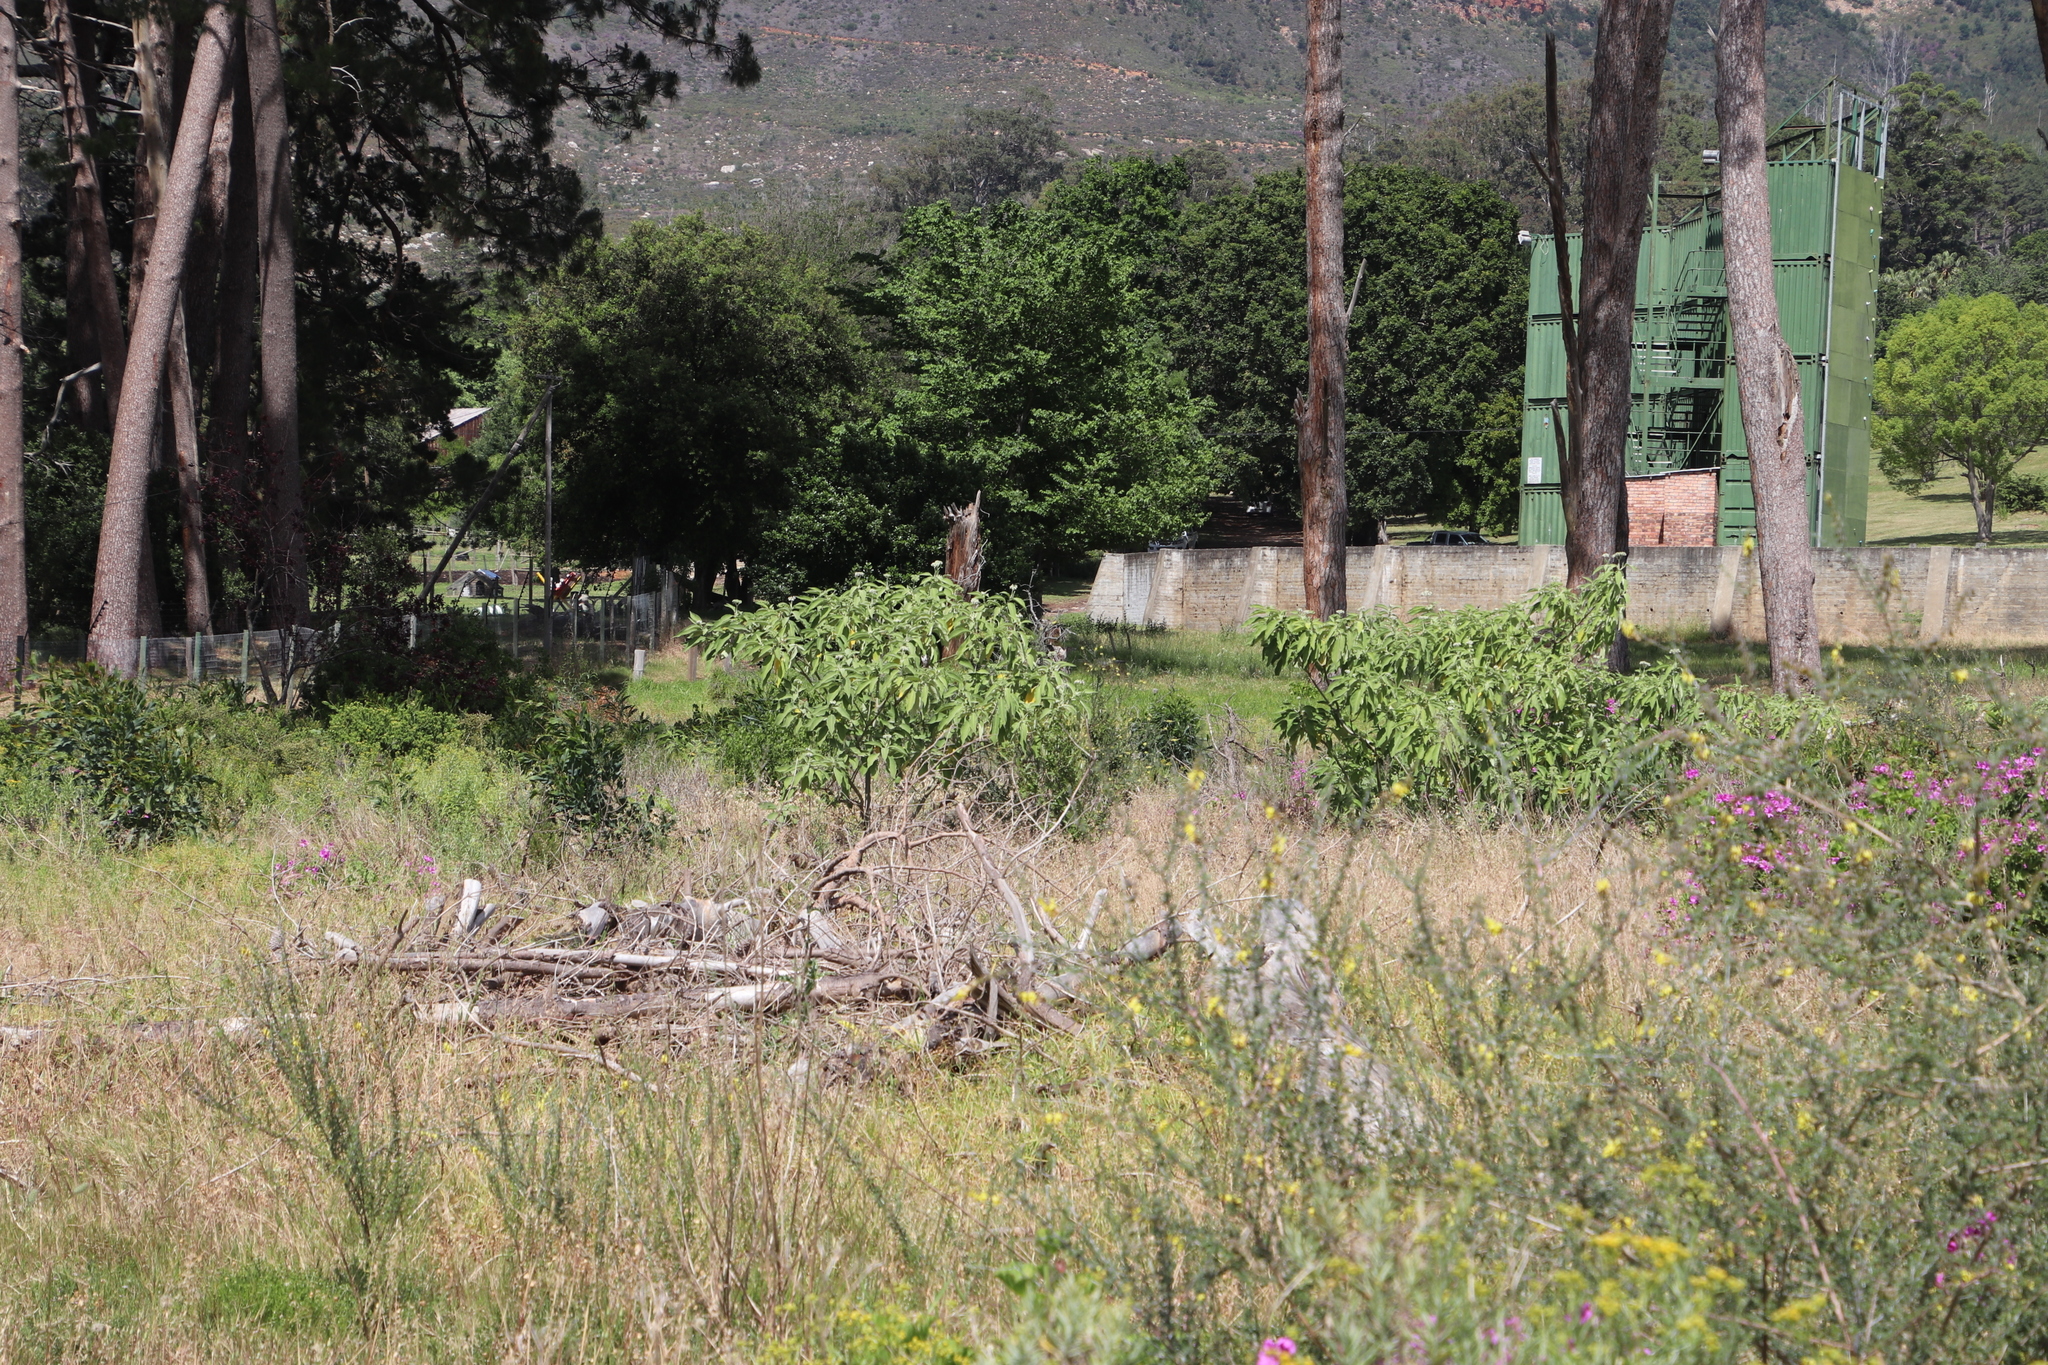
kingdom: Plantae
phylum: Tracheophyta
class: Magnoliopsida
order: Solanales
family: Solanaceae
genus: Solanum
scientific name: Solanum mauritianum
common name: Earleaf nightshade
